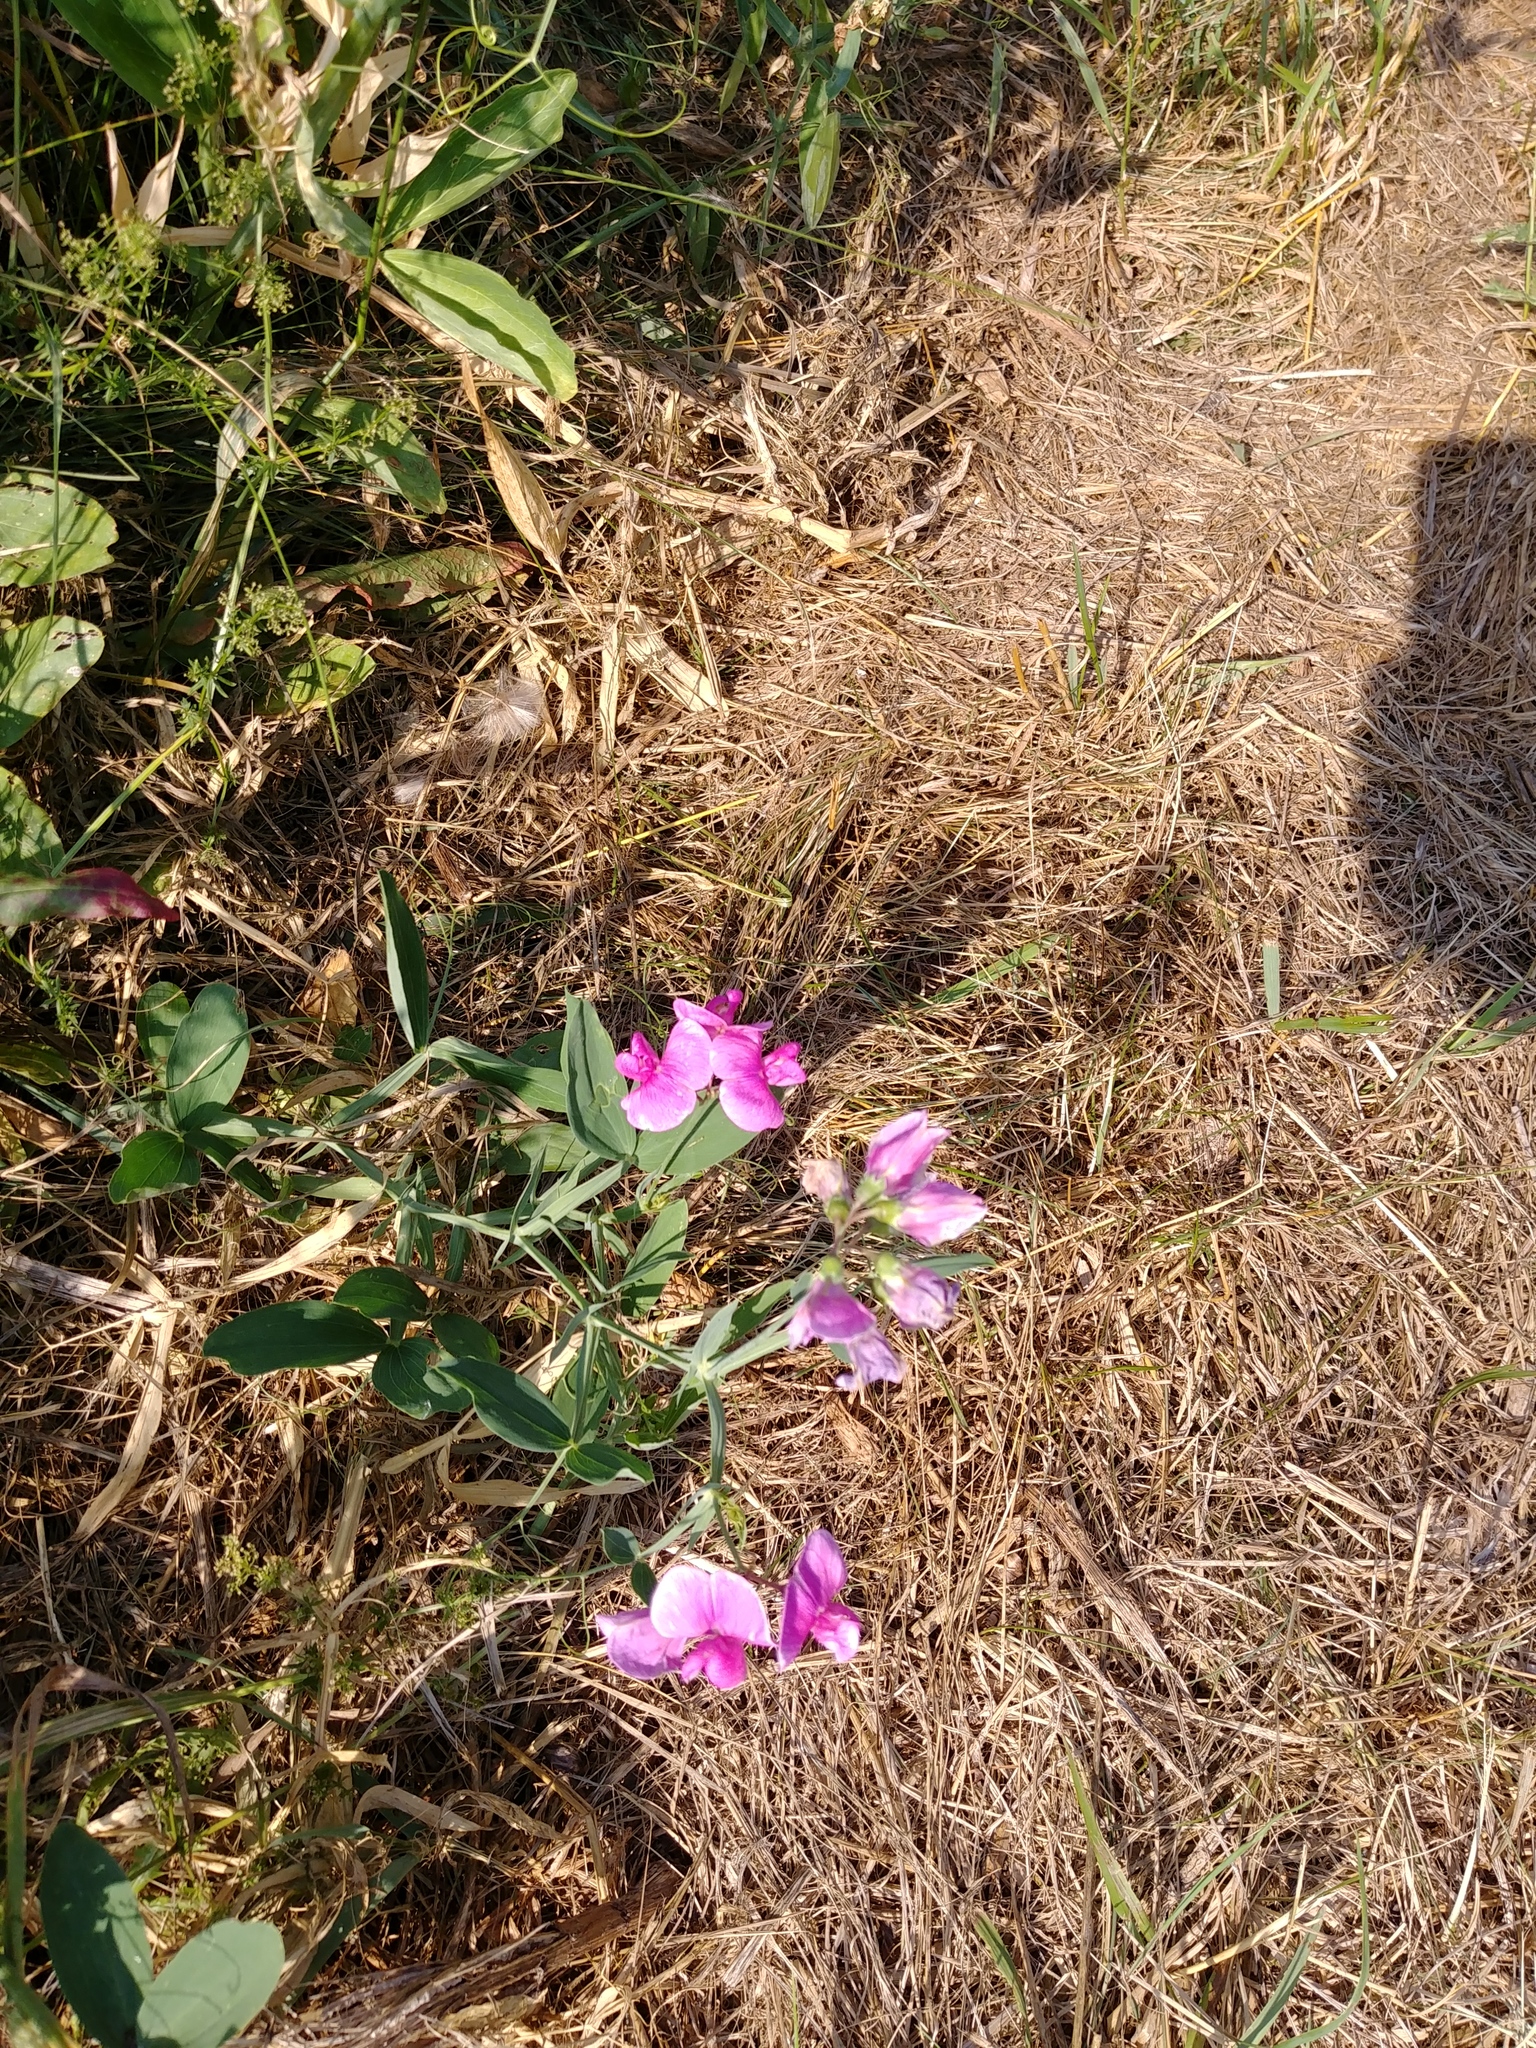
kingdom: Plantae
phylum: Tracheophyta
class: Magnoliopsida
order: Fabales
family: Fabaceae
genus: Lathyrus
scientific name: Lathyrus latifolius
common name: Perennial pea
